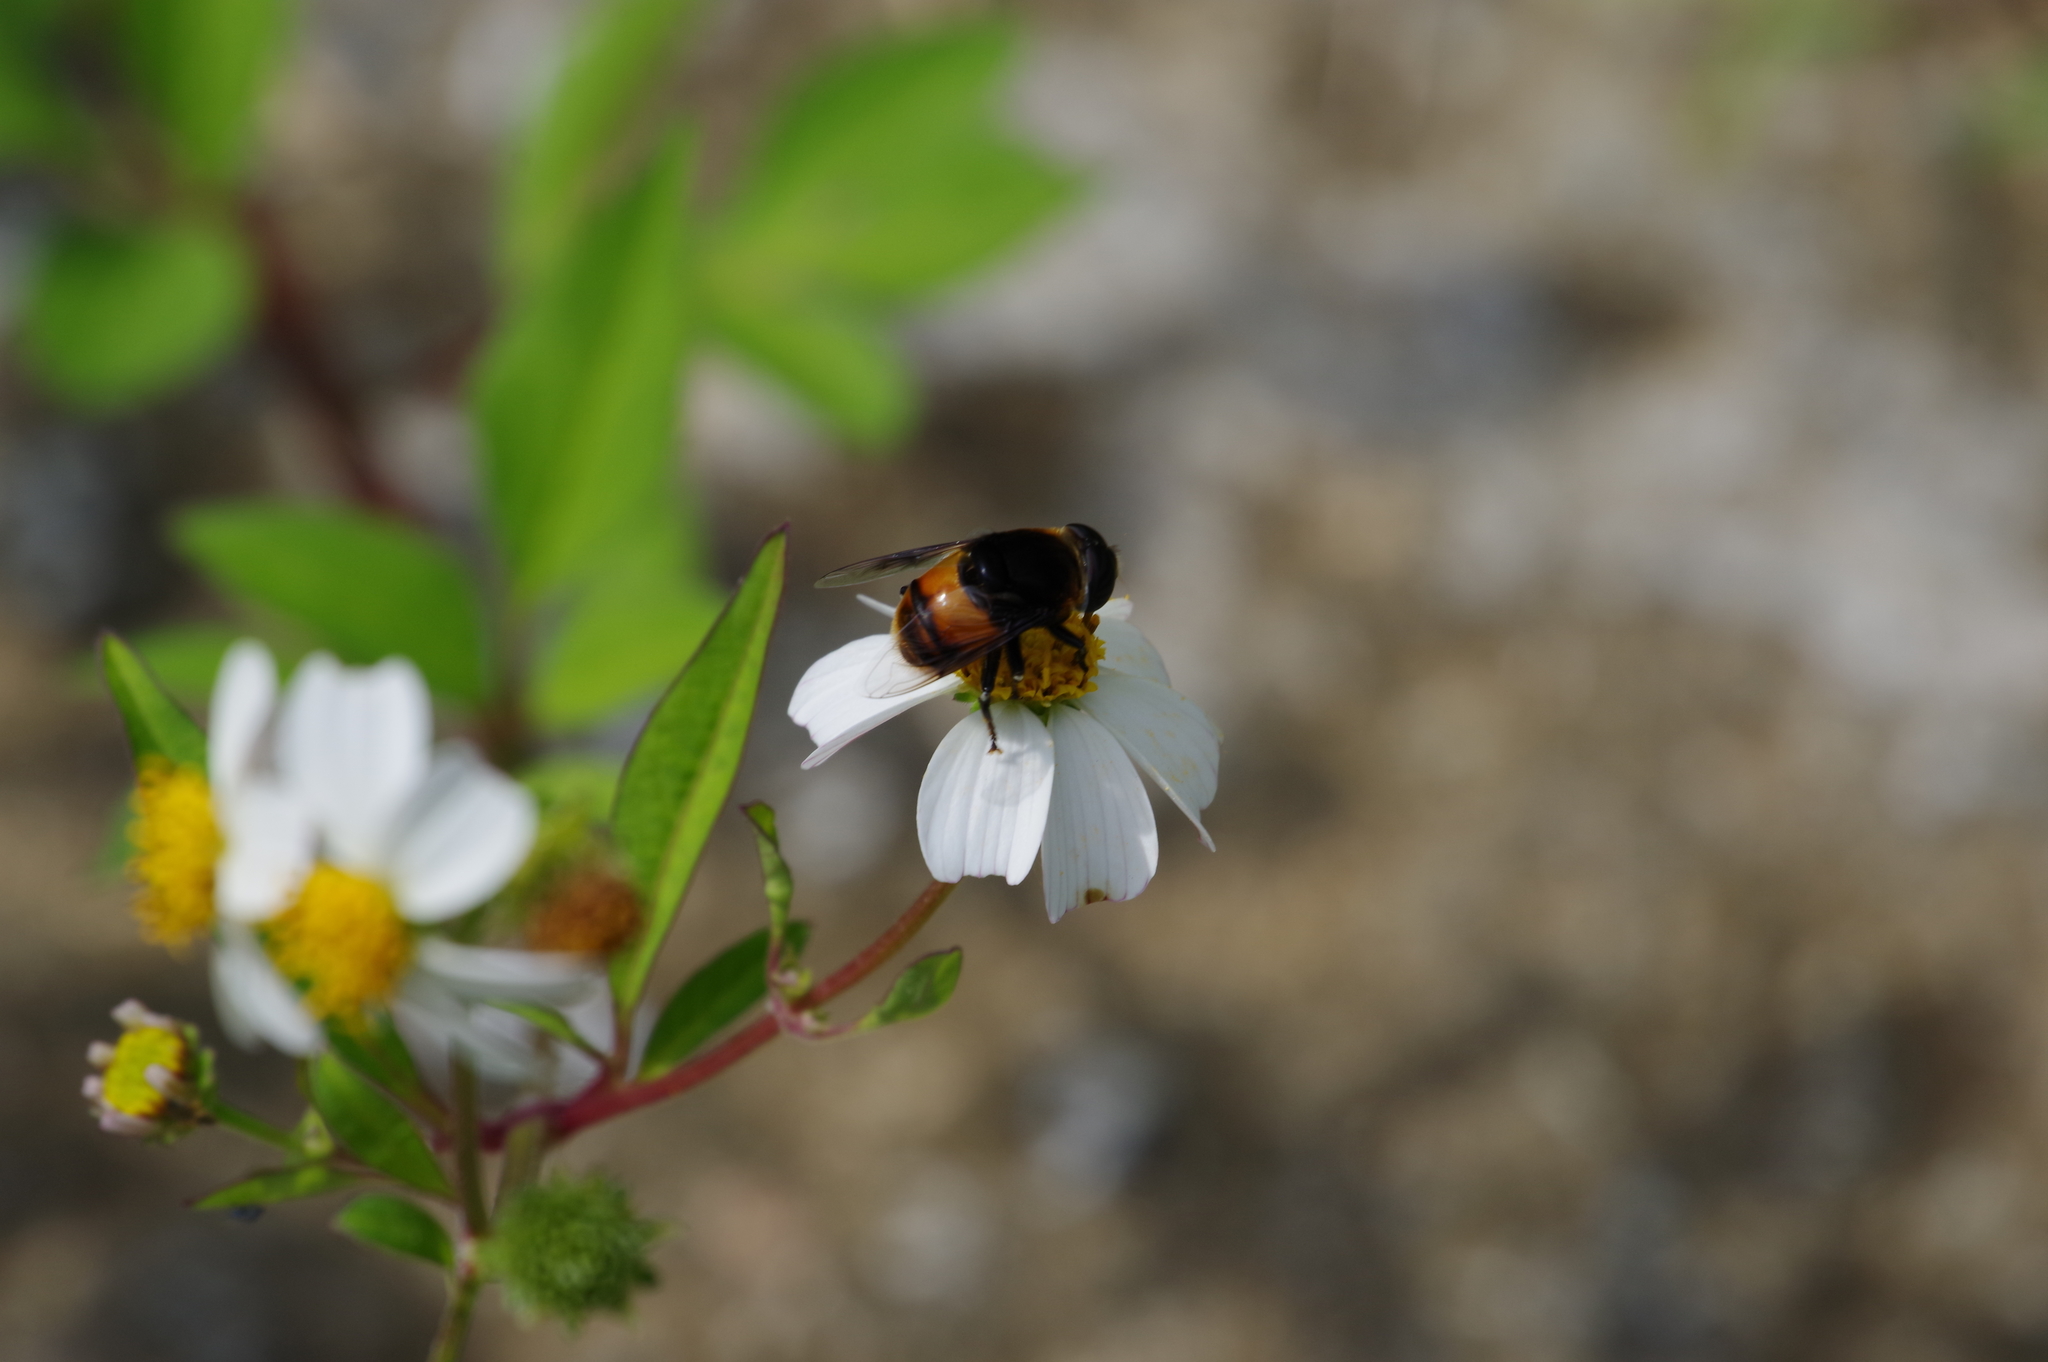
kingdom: Animalia
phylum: Arthropoda
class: Insecta
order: Diptera
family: Syrphidae
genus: Phytomia
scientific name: Phytomia zonata
